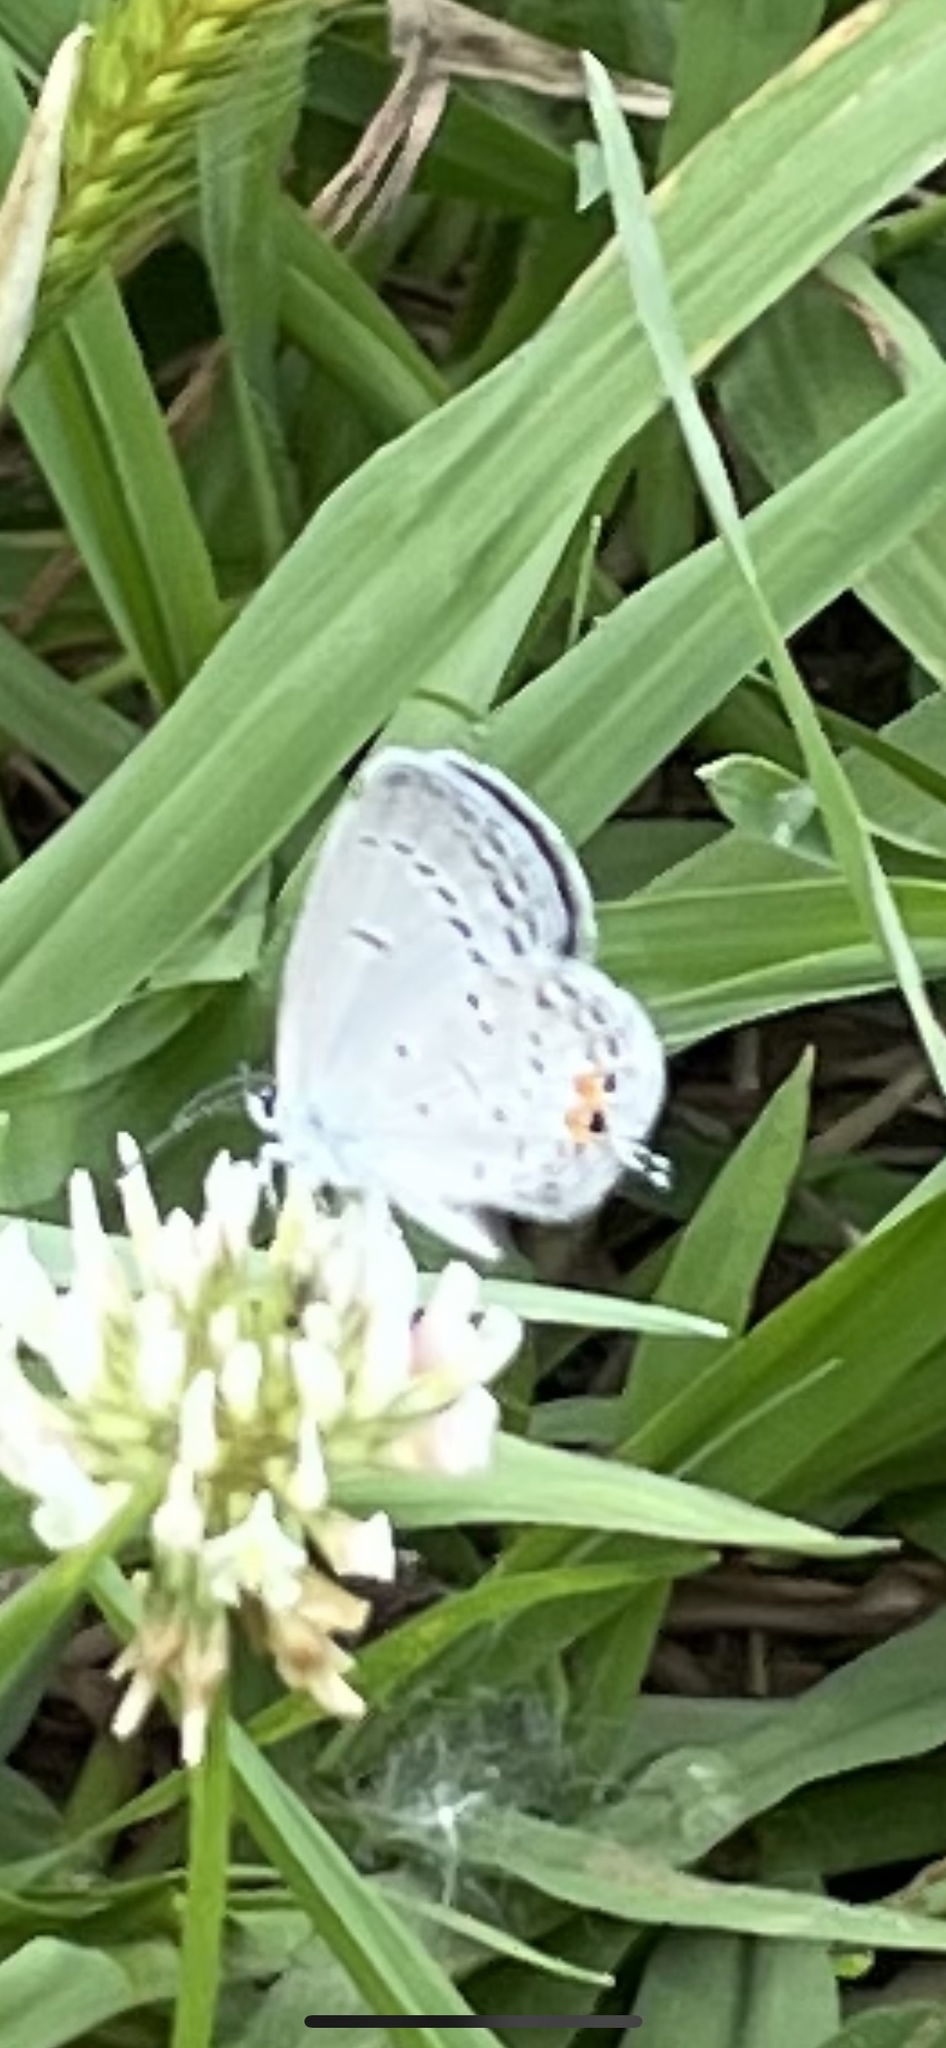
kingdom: Animalia
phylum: Arthropoda
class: Insecta
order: Lepidoptera
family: Lycaenidae
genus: Elkalyce
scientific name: Elkalyce comyntas
